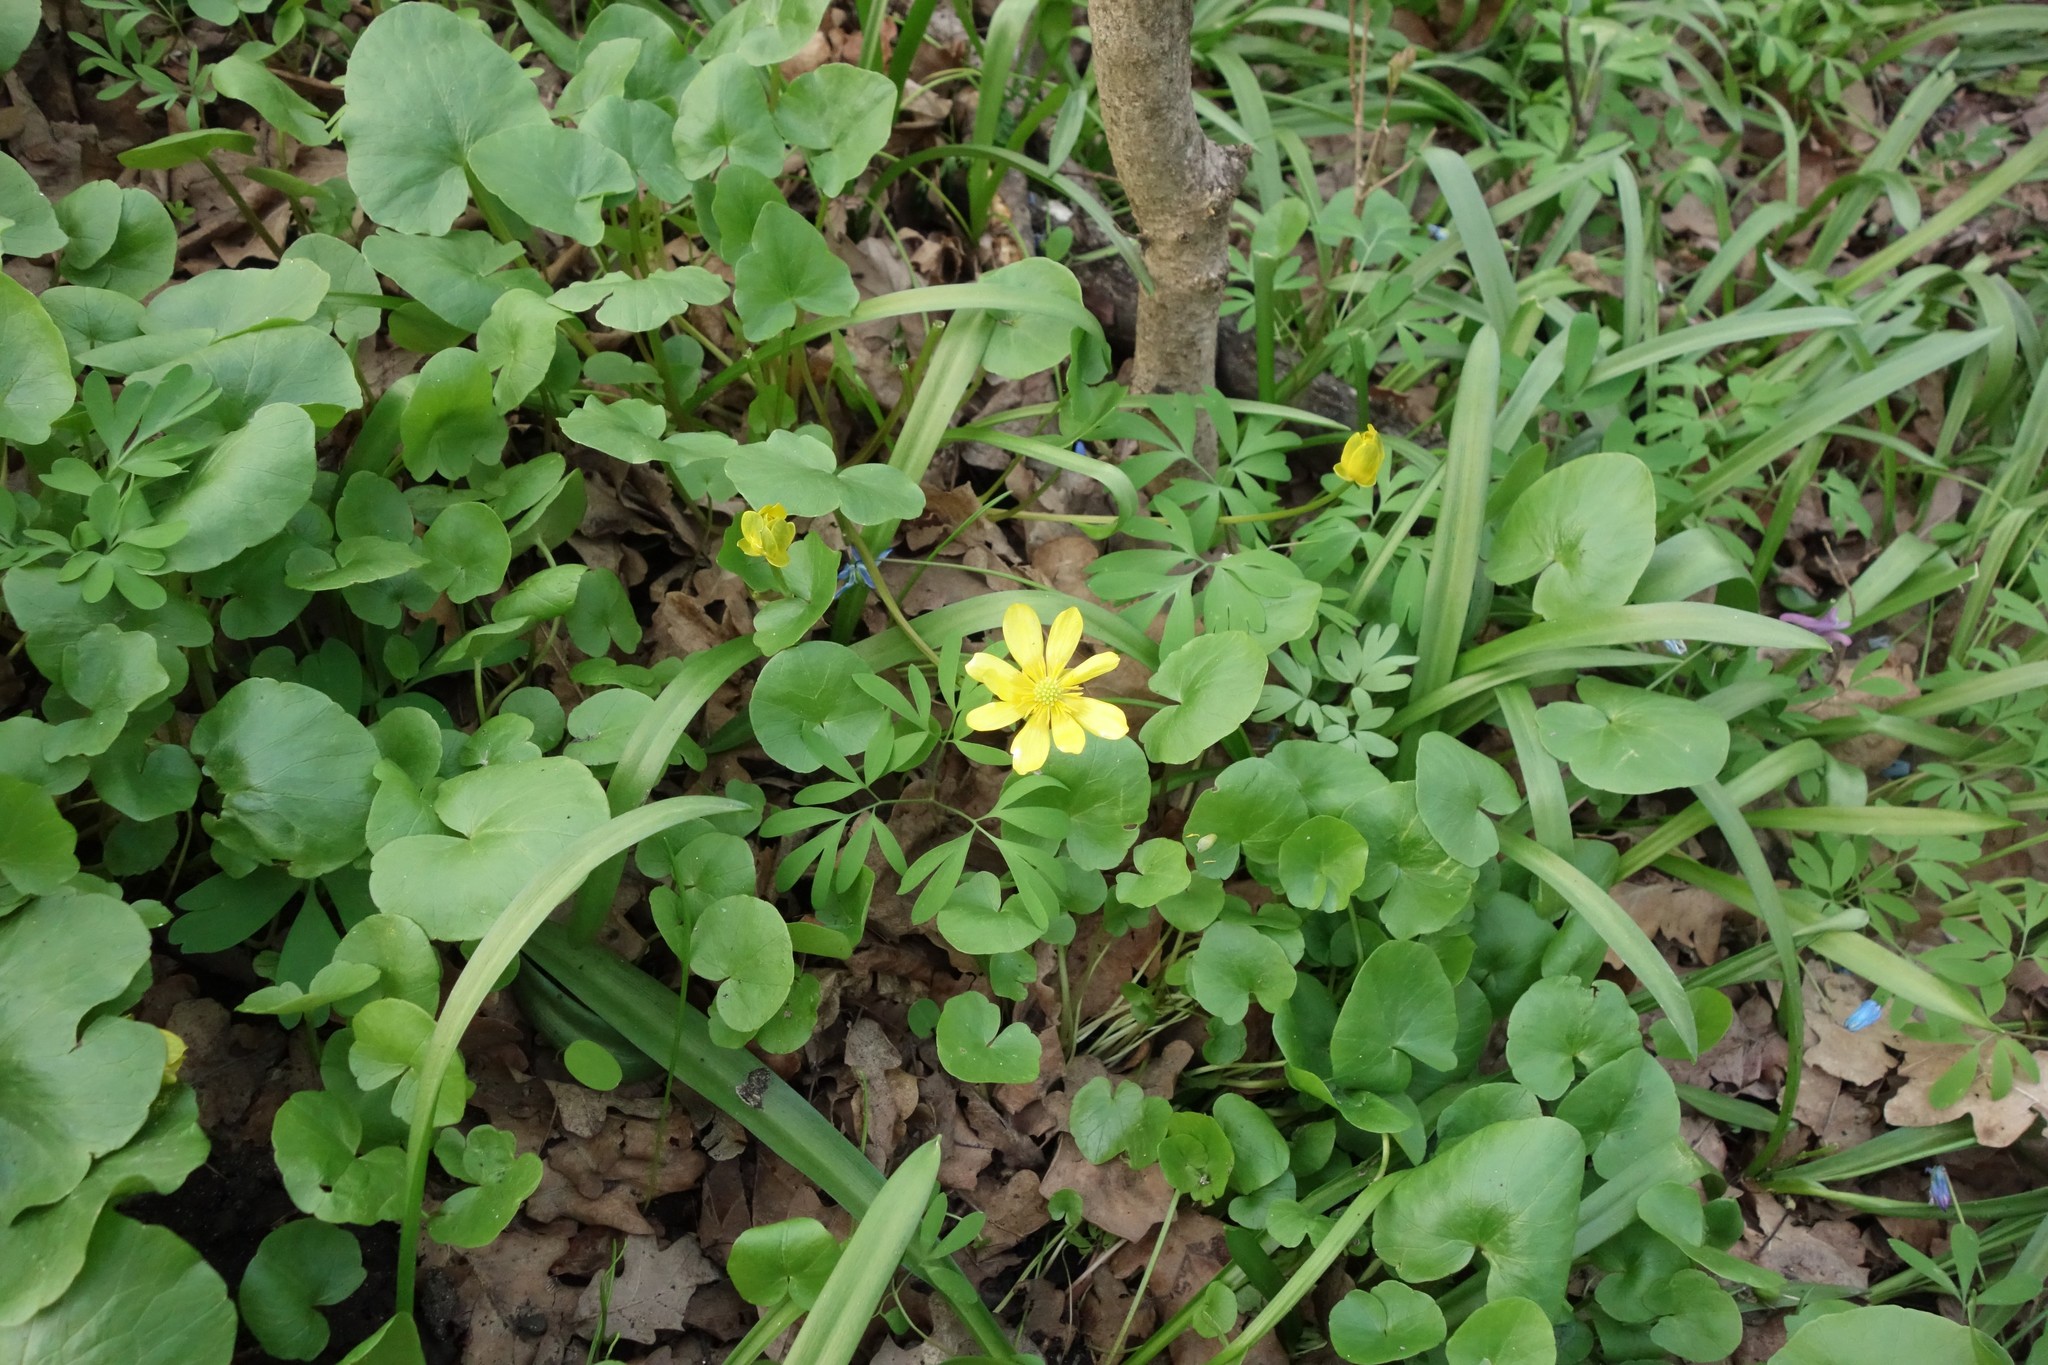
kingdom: Plantae
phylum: Tracheophyta
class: Magnoliopsida
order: Ranunculales
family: Ranunculaceae
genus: Ficaria
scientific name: Ficaria verna
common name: Lesser celandine
